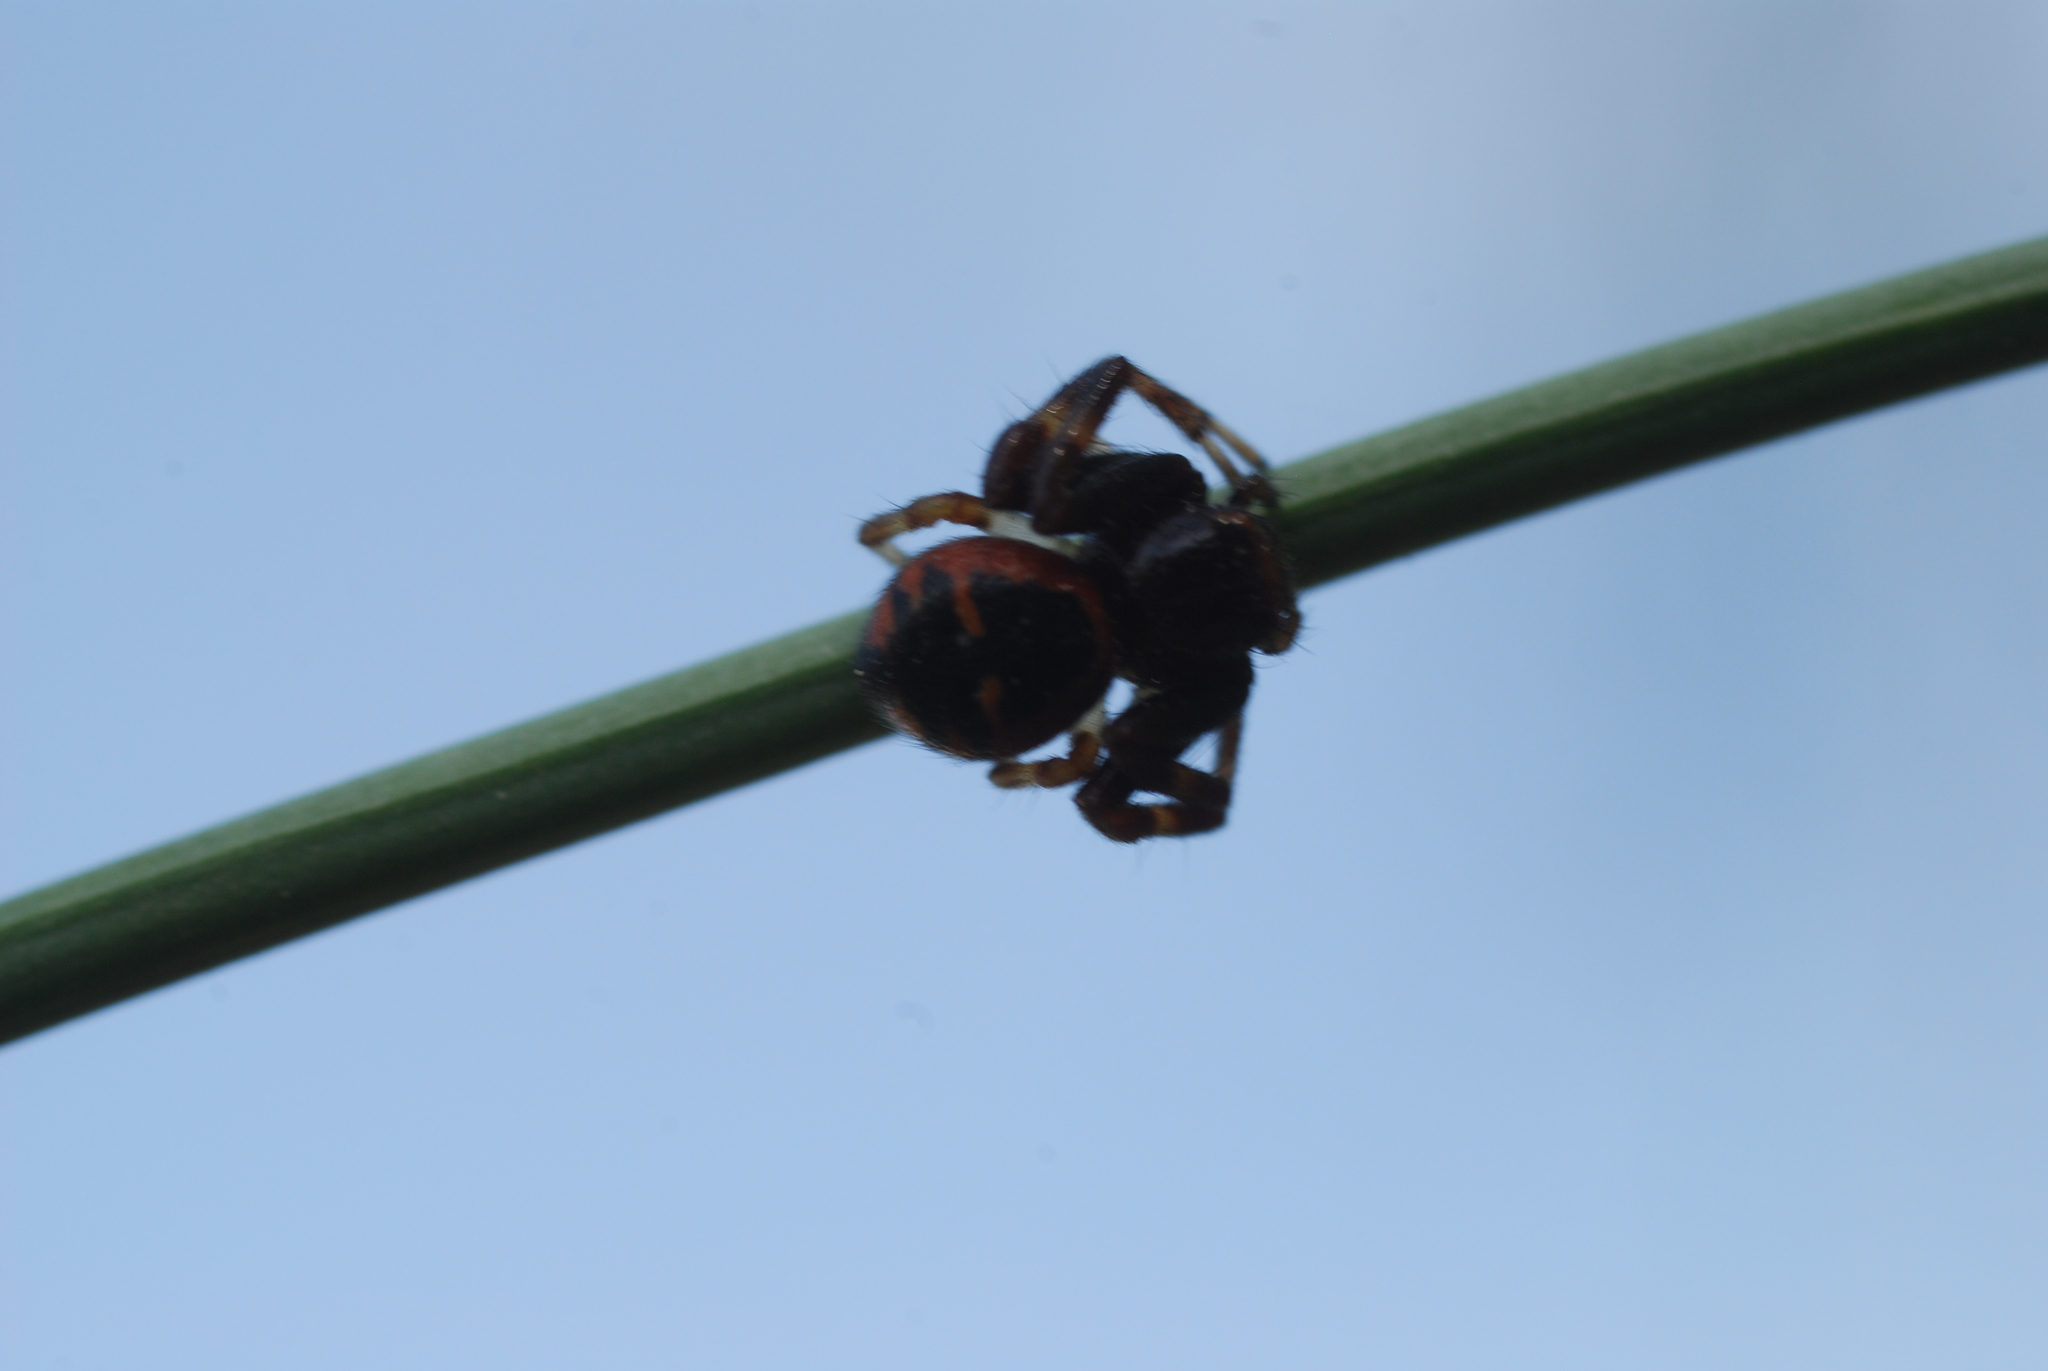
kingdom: Animalia
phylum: Arthropoda
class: Arachnida
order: Araneae
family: Thomisidae
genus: Synema
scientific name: Synema globosum
